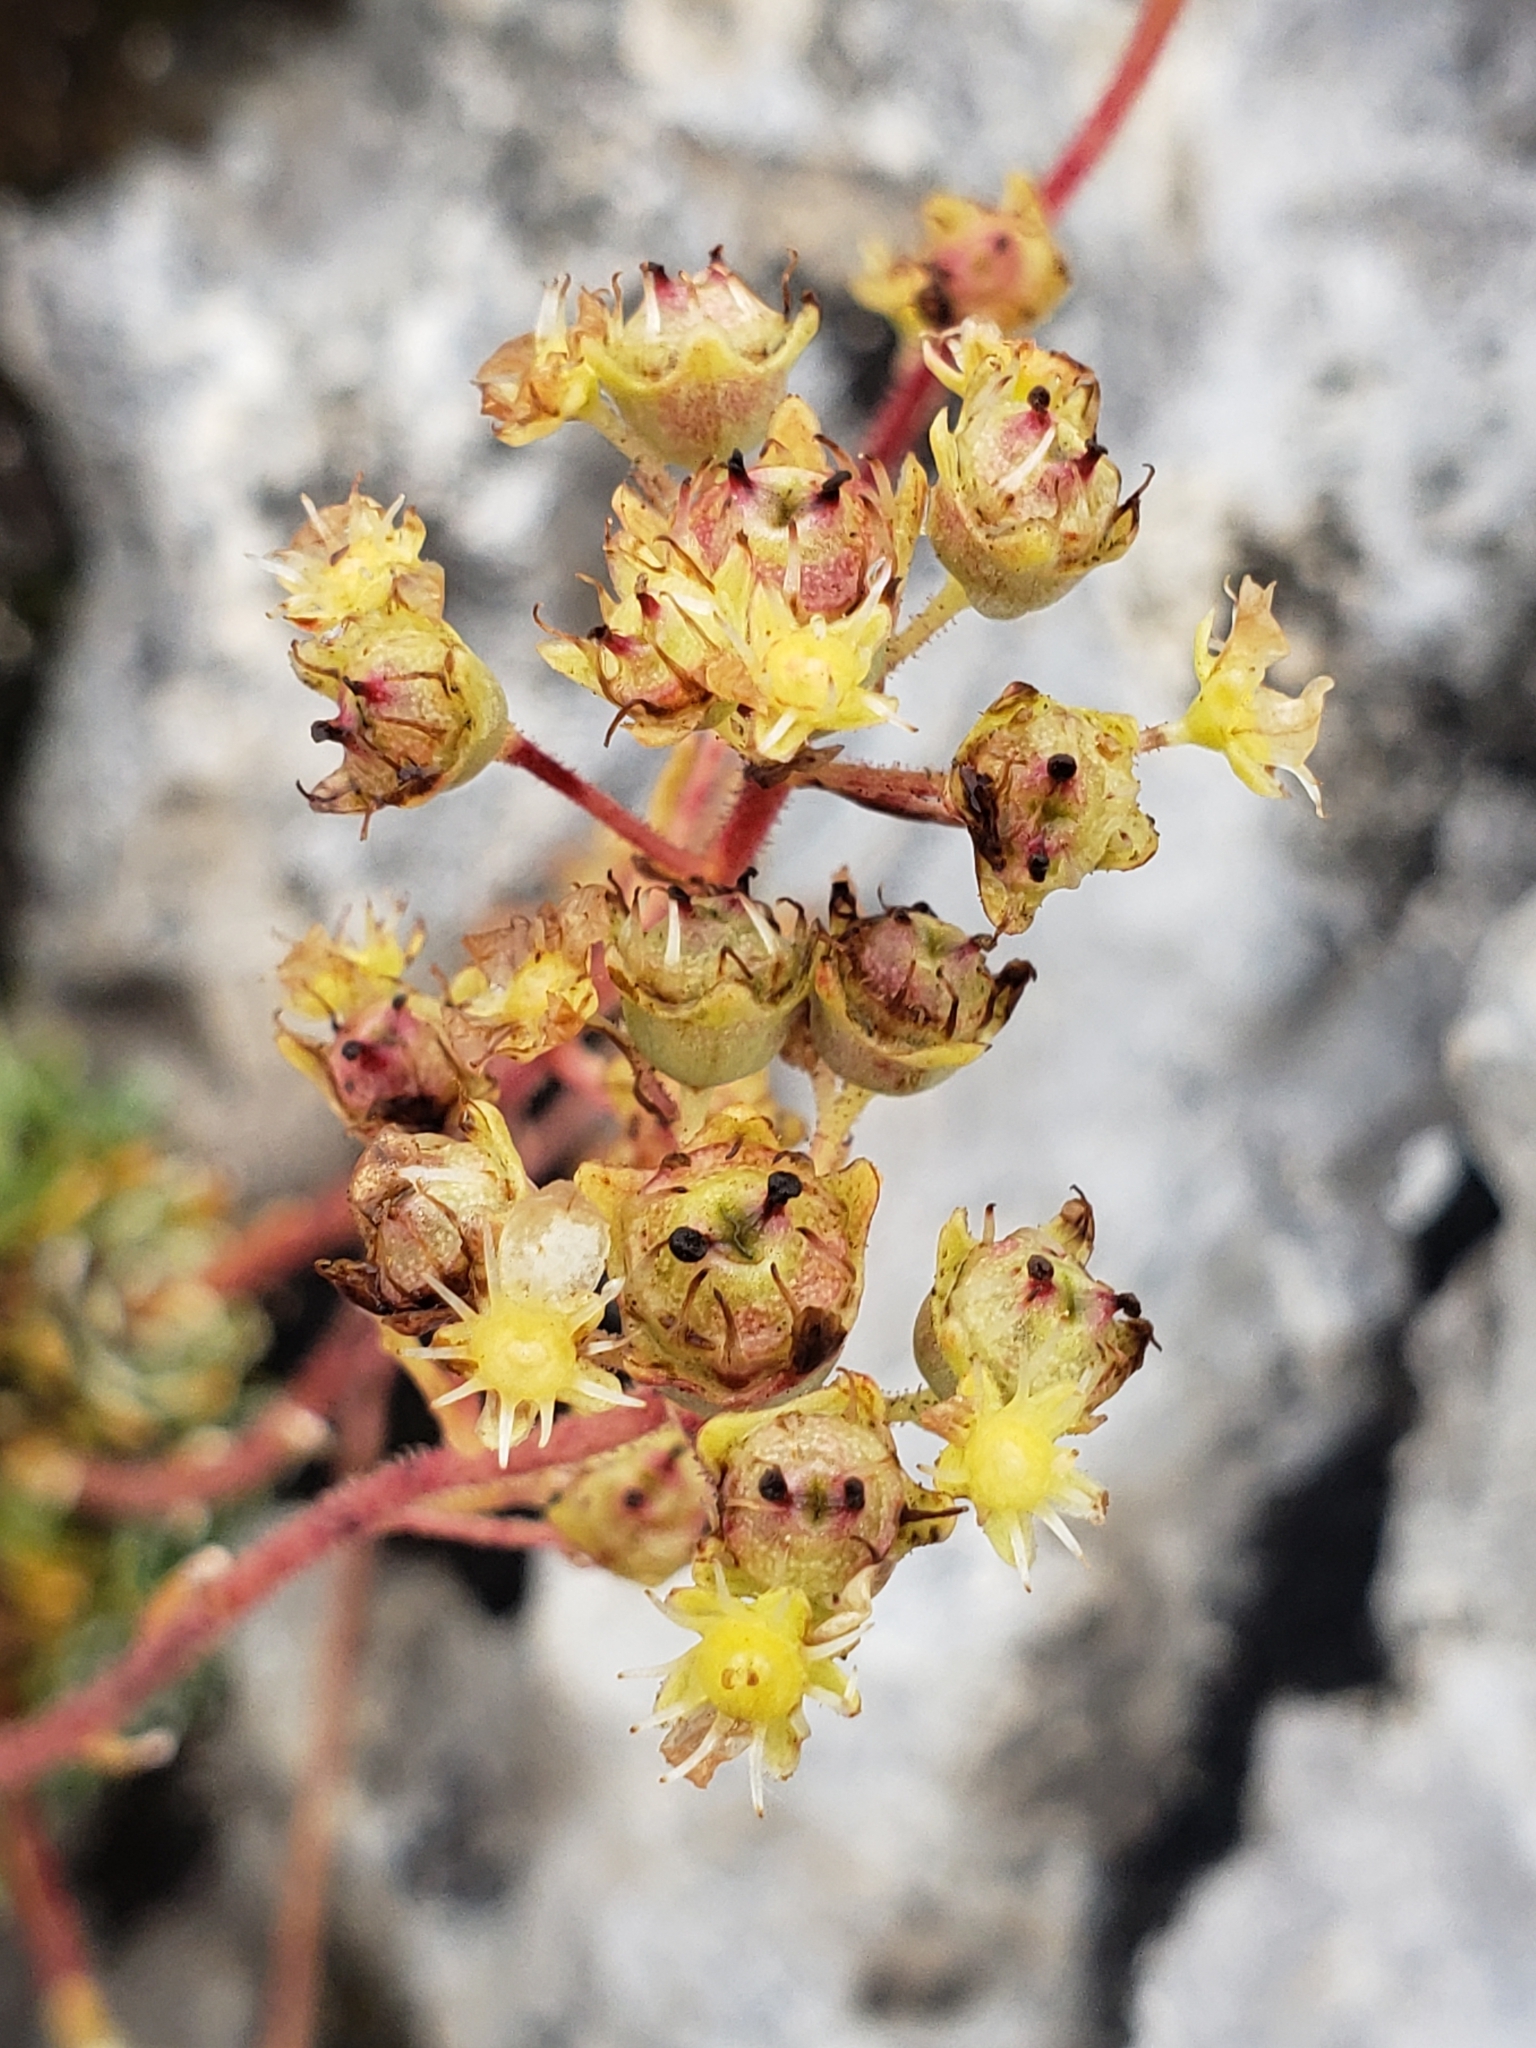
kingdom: Plantae
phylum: Tracheophyta
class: Magnoliopsida
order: Saxifragales
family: Saxifragaceae
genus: Saxifraga
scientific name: Saxifraga paniculata
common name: Livelong saxifrage
